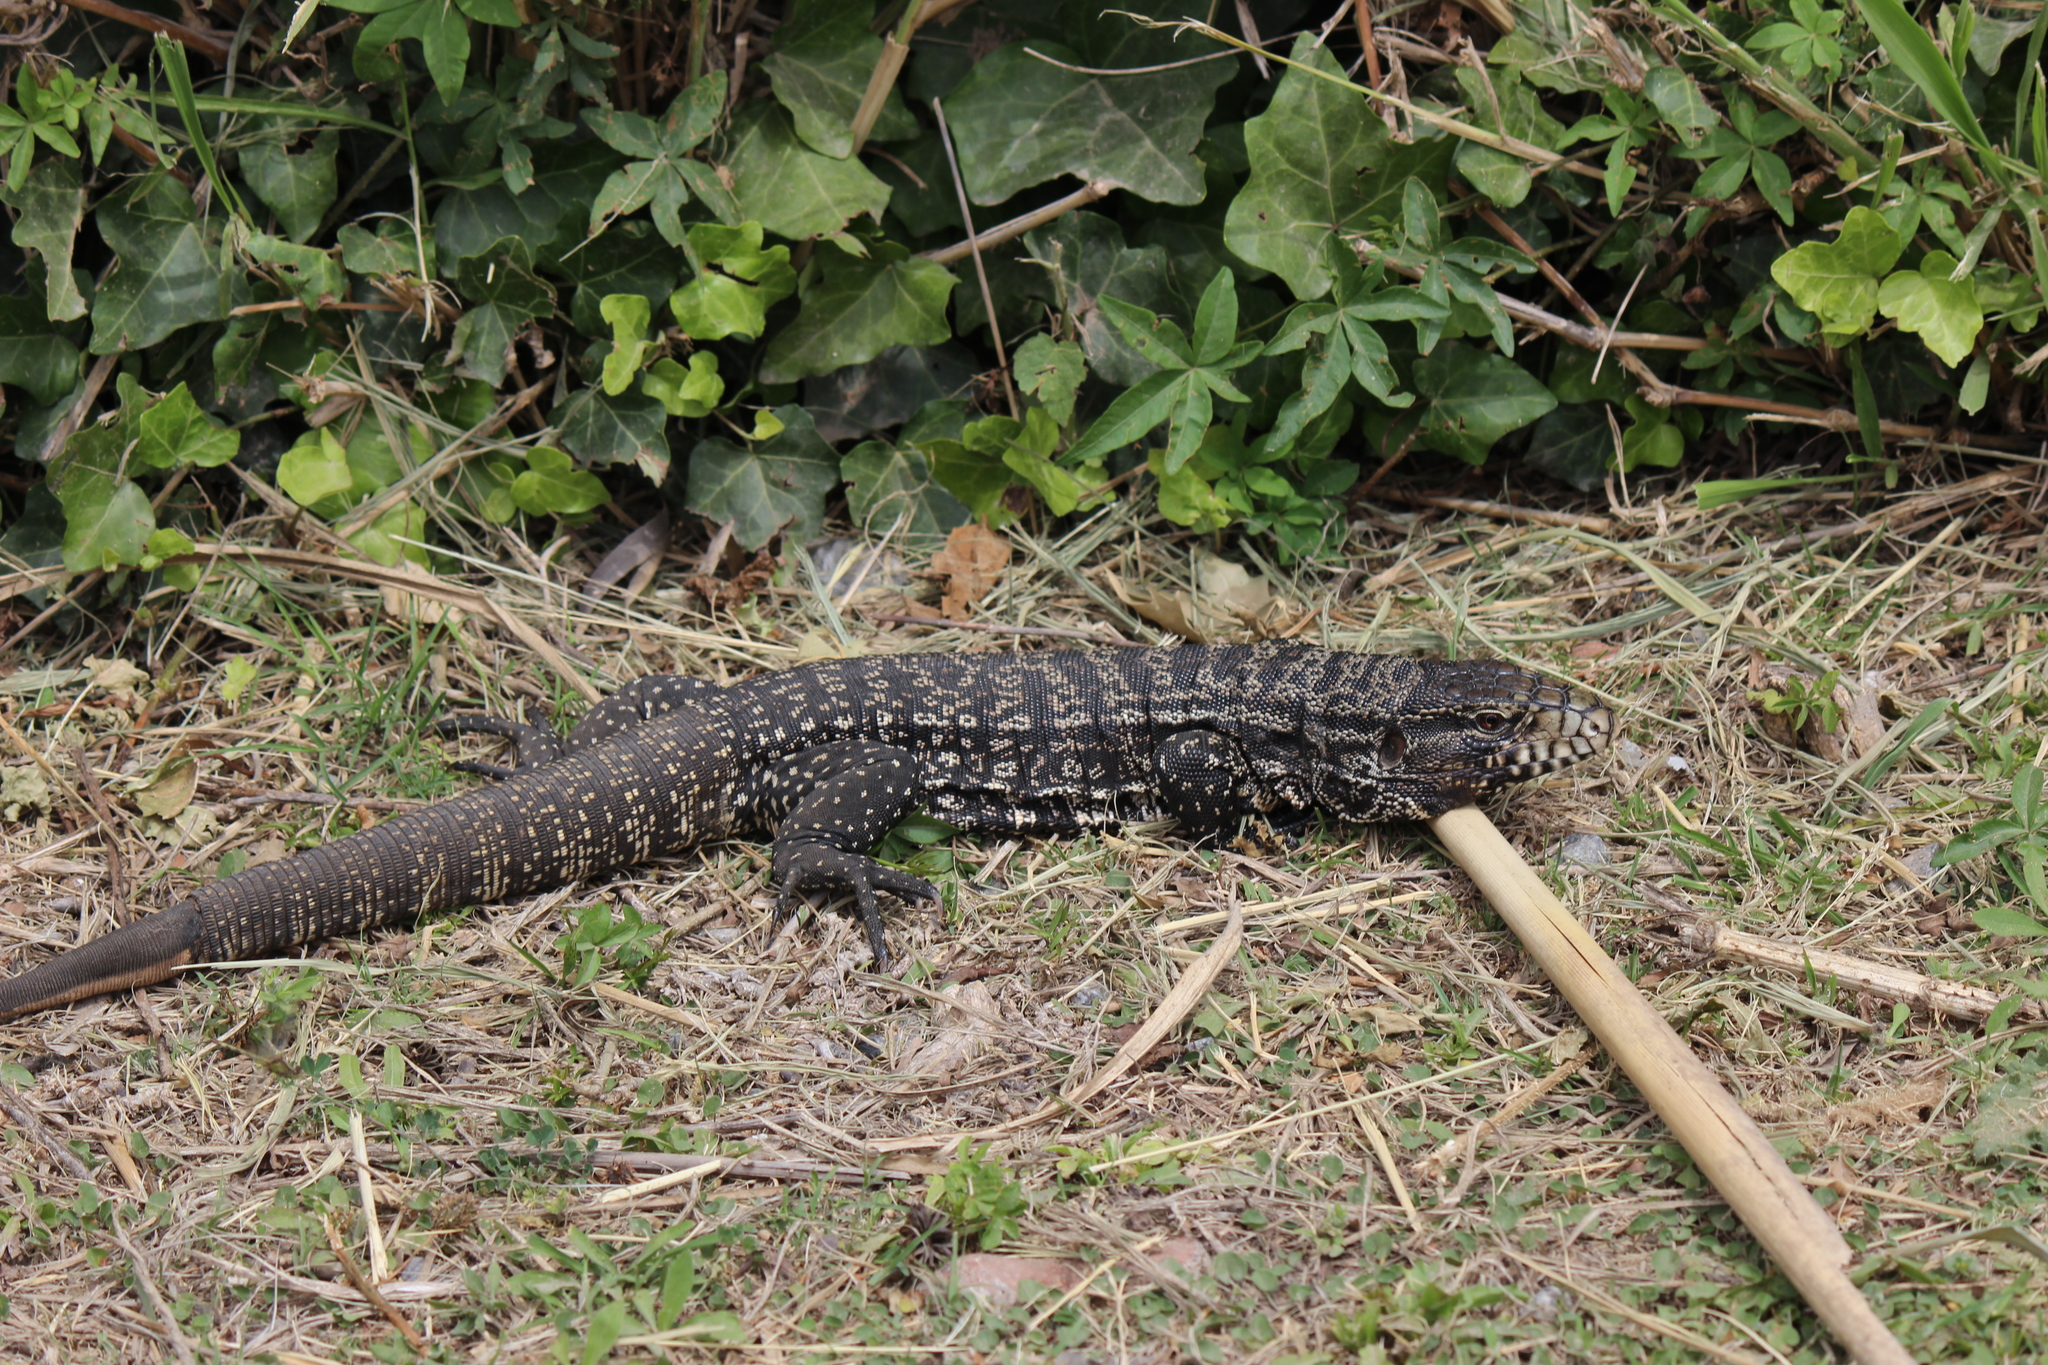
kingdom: Animalia
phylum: Chordata
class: Squamata
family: Teiidae
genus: Salvator
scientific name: Salvator merianae
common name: Argentine black and white tegu
